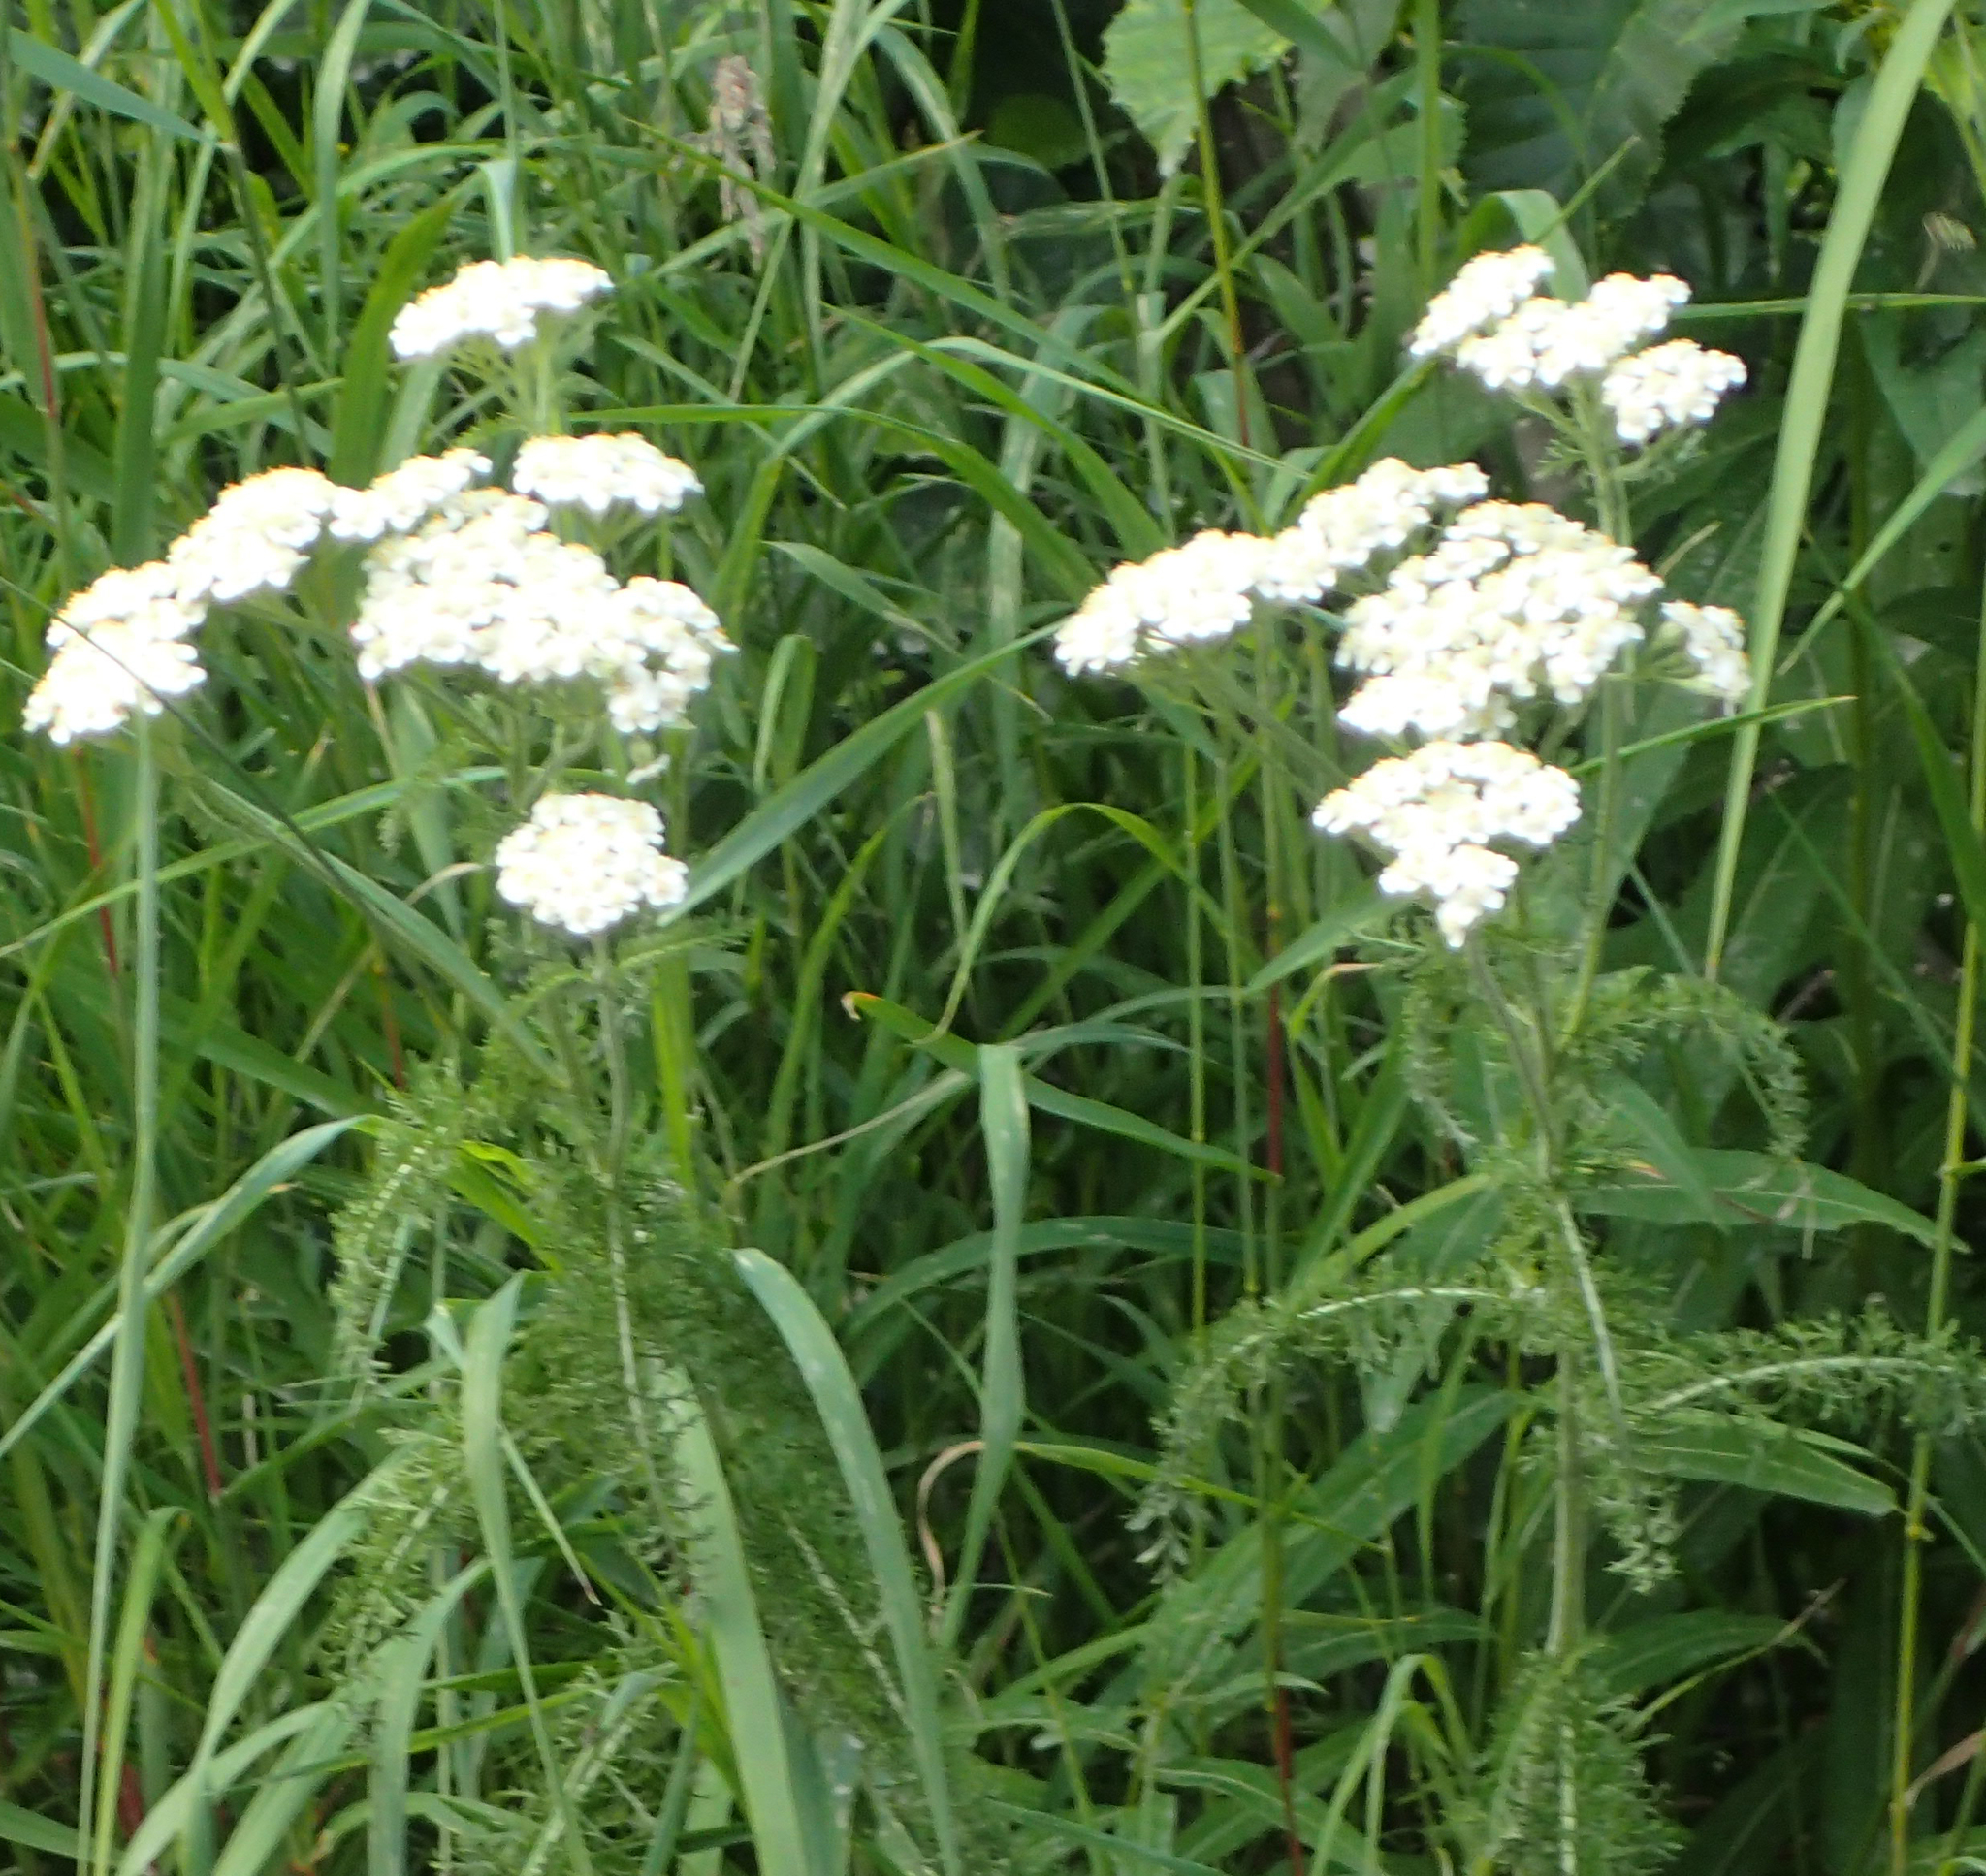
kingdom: Plantae
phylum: Tracheophyta
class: Magnoliopsida
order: Asterales
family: Asteraceae
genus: Achillea
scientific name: Achillea millefolium
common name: Yarrow
